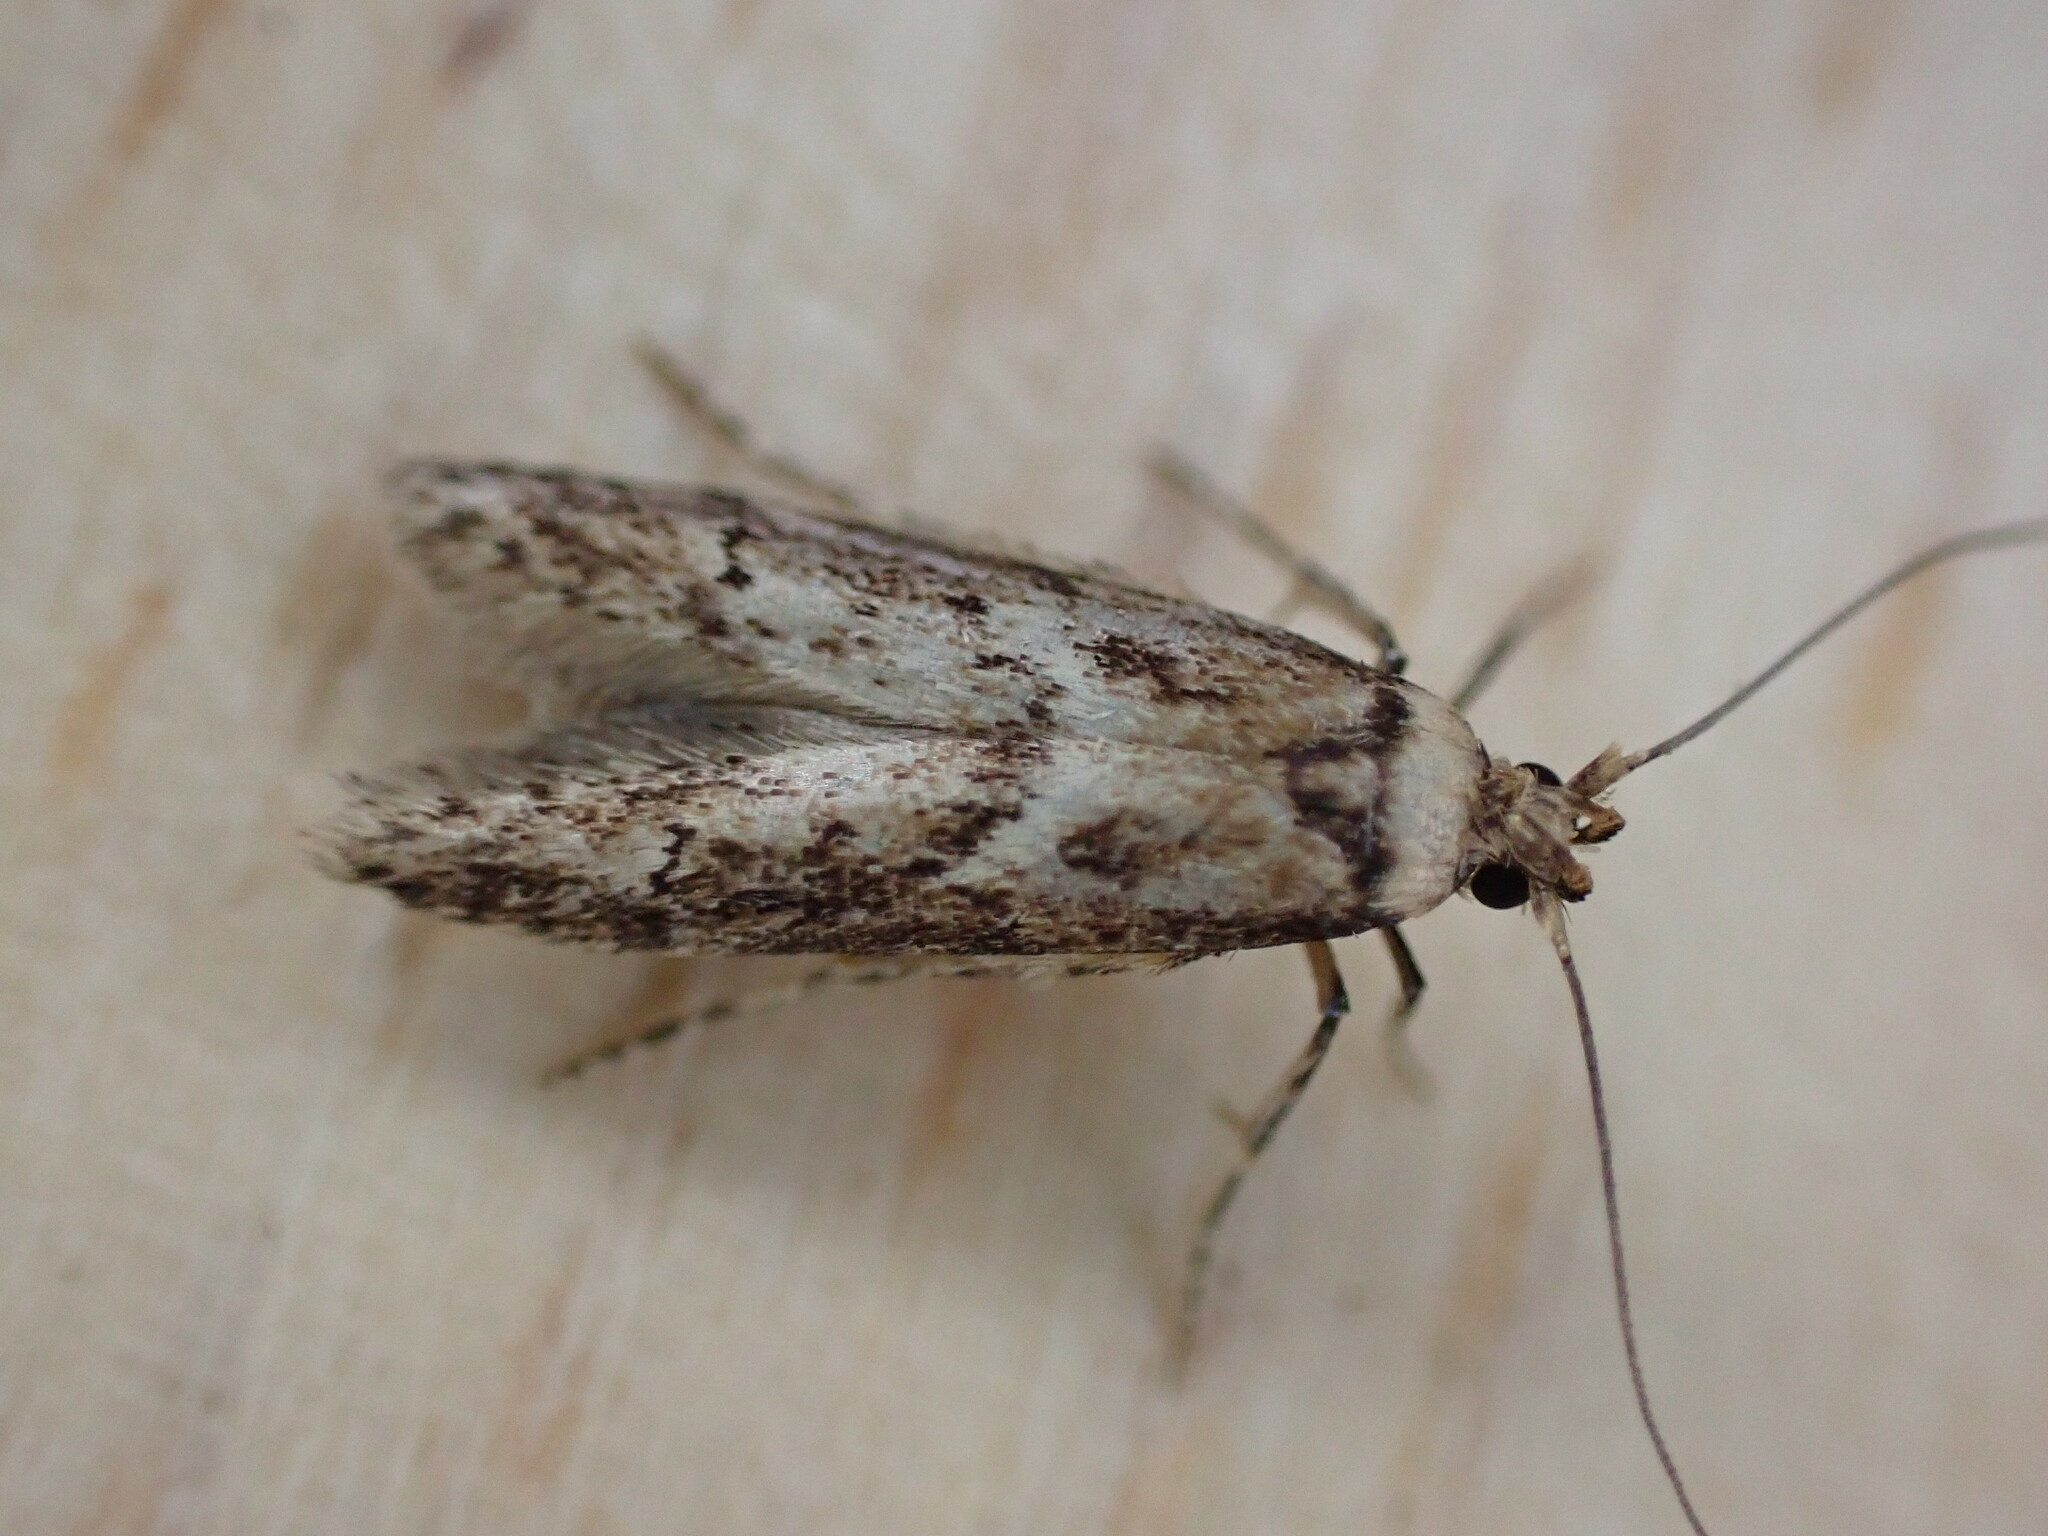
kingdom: Animalia
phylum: Arthropoda
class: Insecta
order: Lepidoptera
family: Blastobasidae
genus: Blastobasis
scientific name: Blastobasis adustella
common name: Dingy dowd
